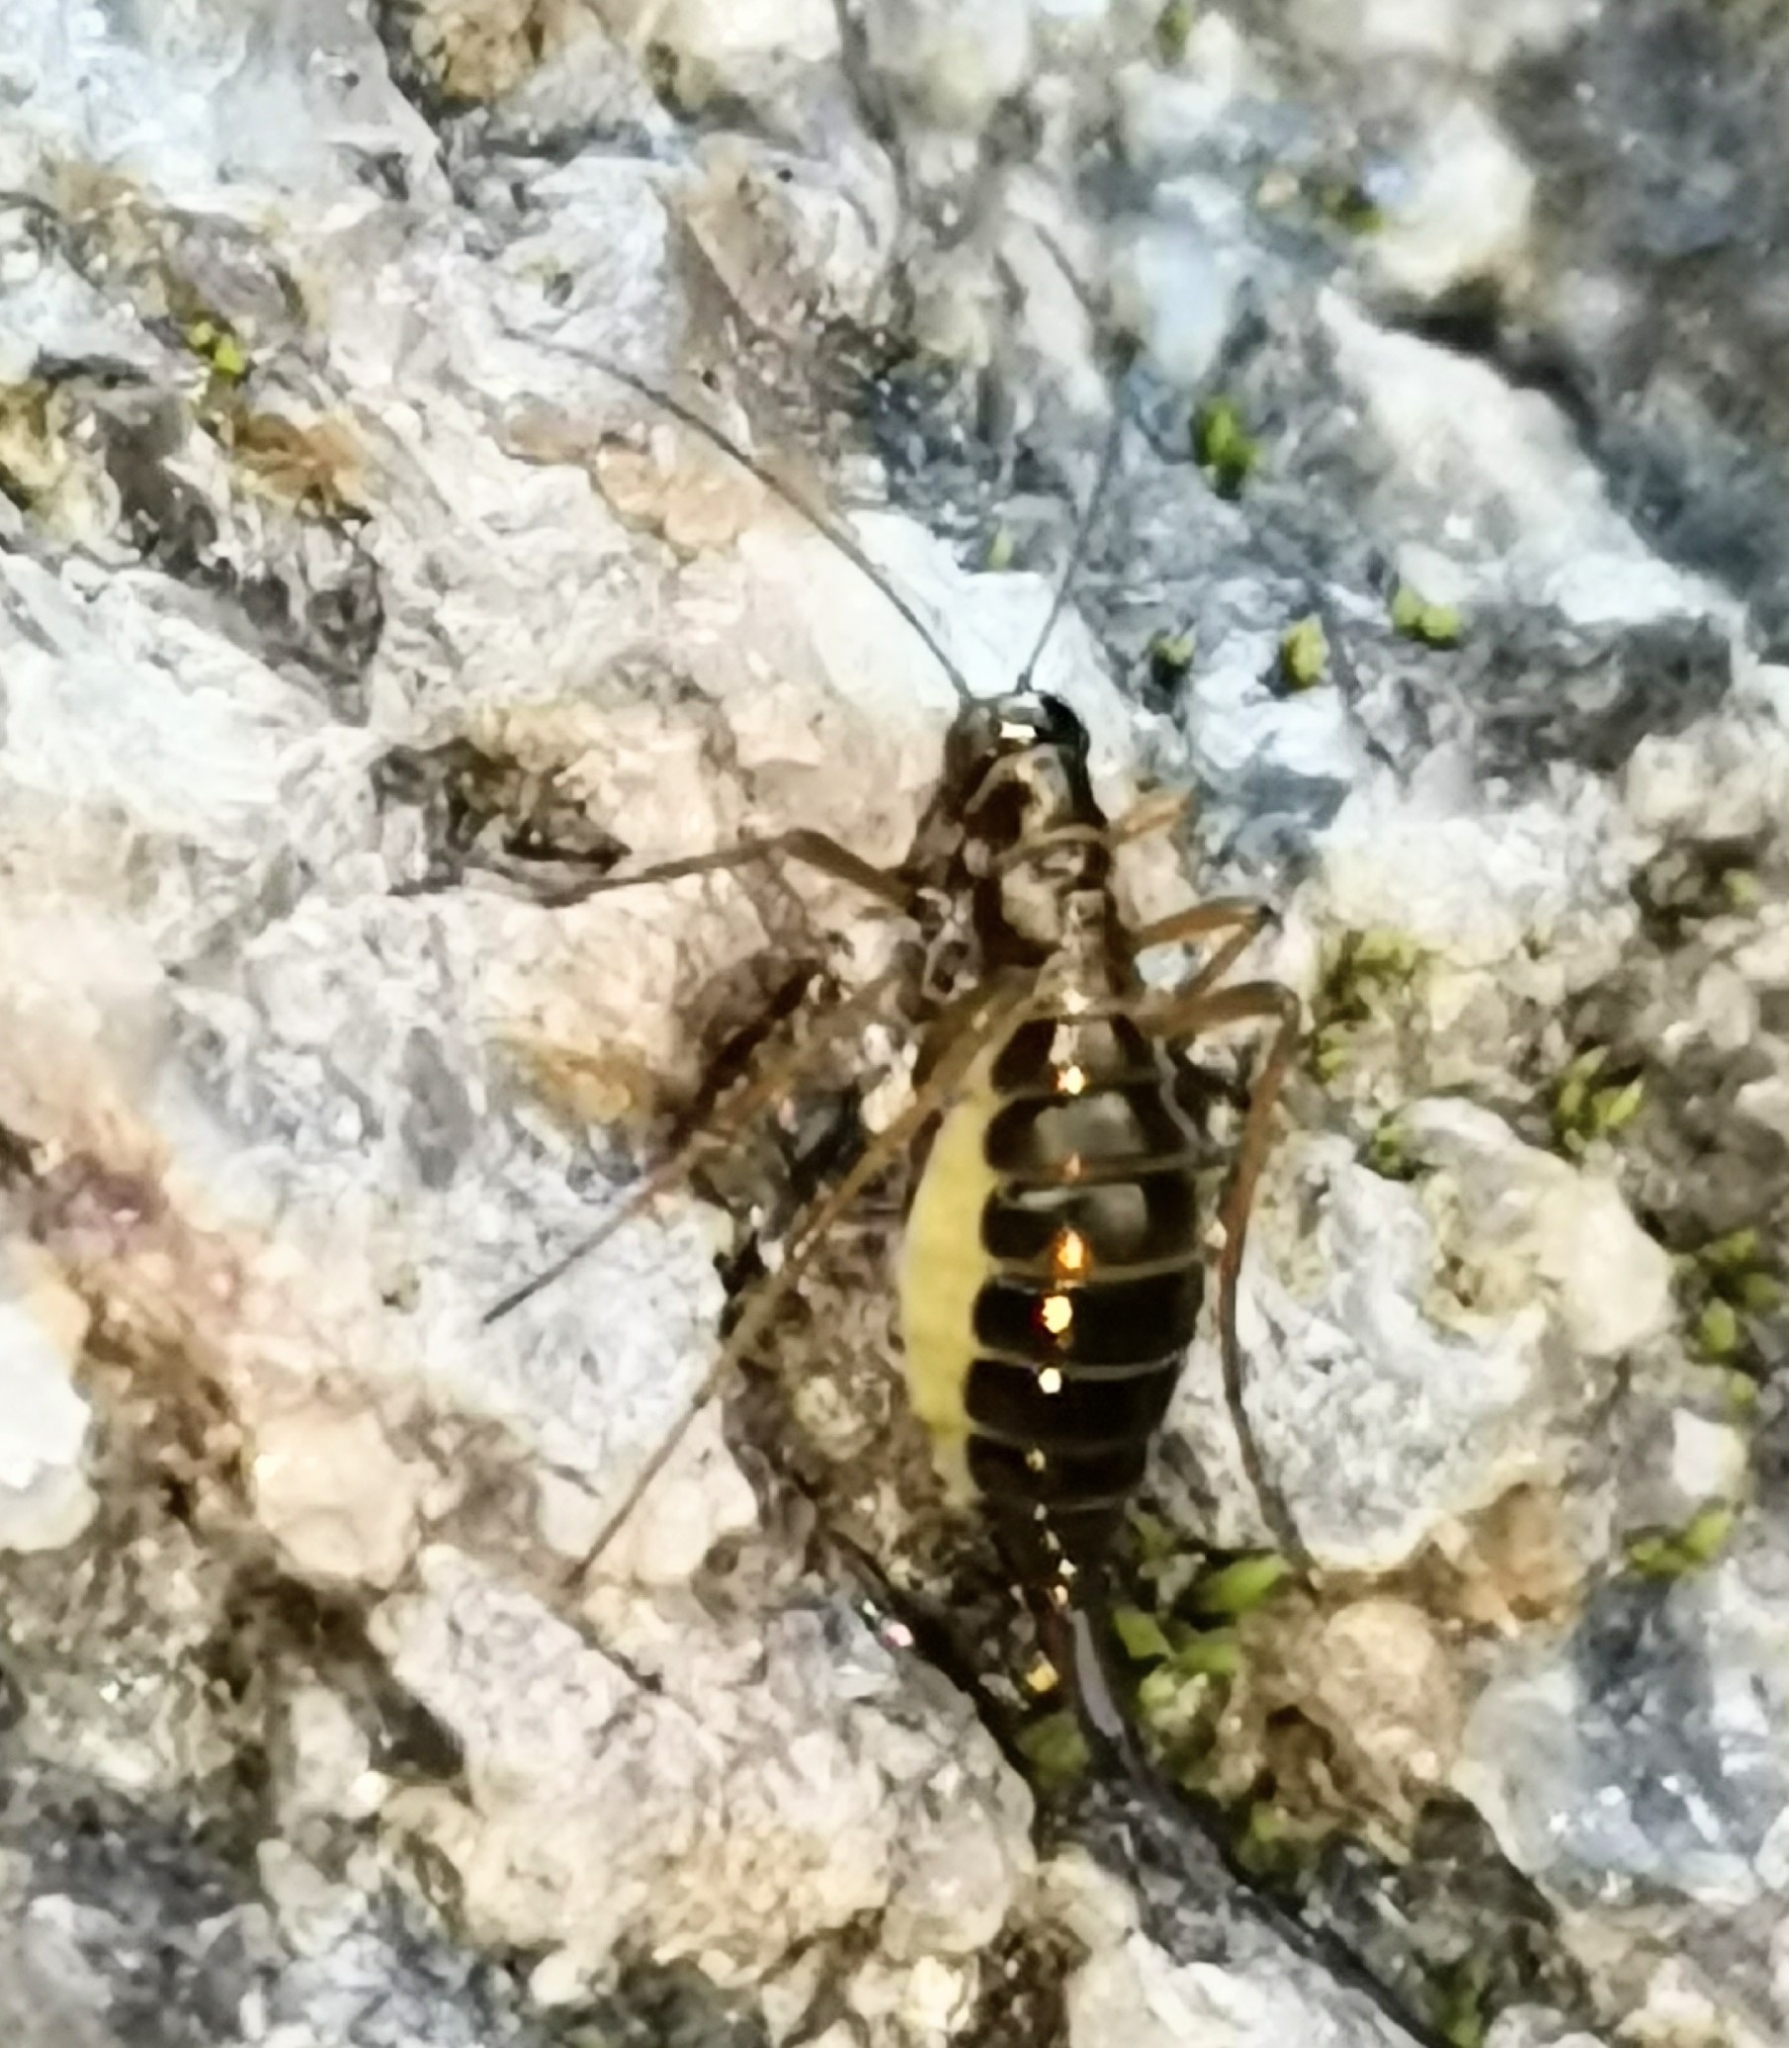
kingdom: Animalia
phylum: Arthropoda
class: Insecta
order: Mecoptera
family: Boreidae
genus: Boreus
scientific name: Boreus westwoodi
